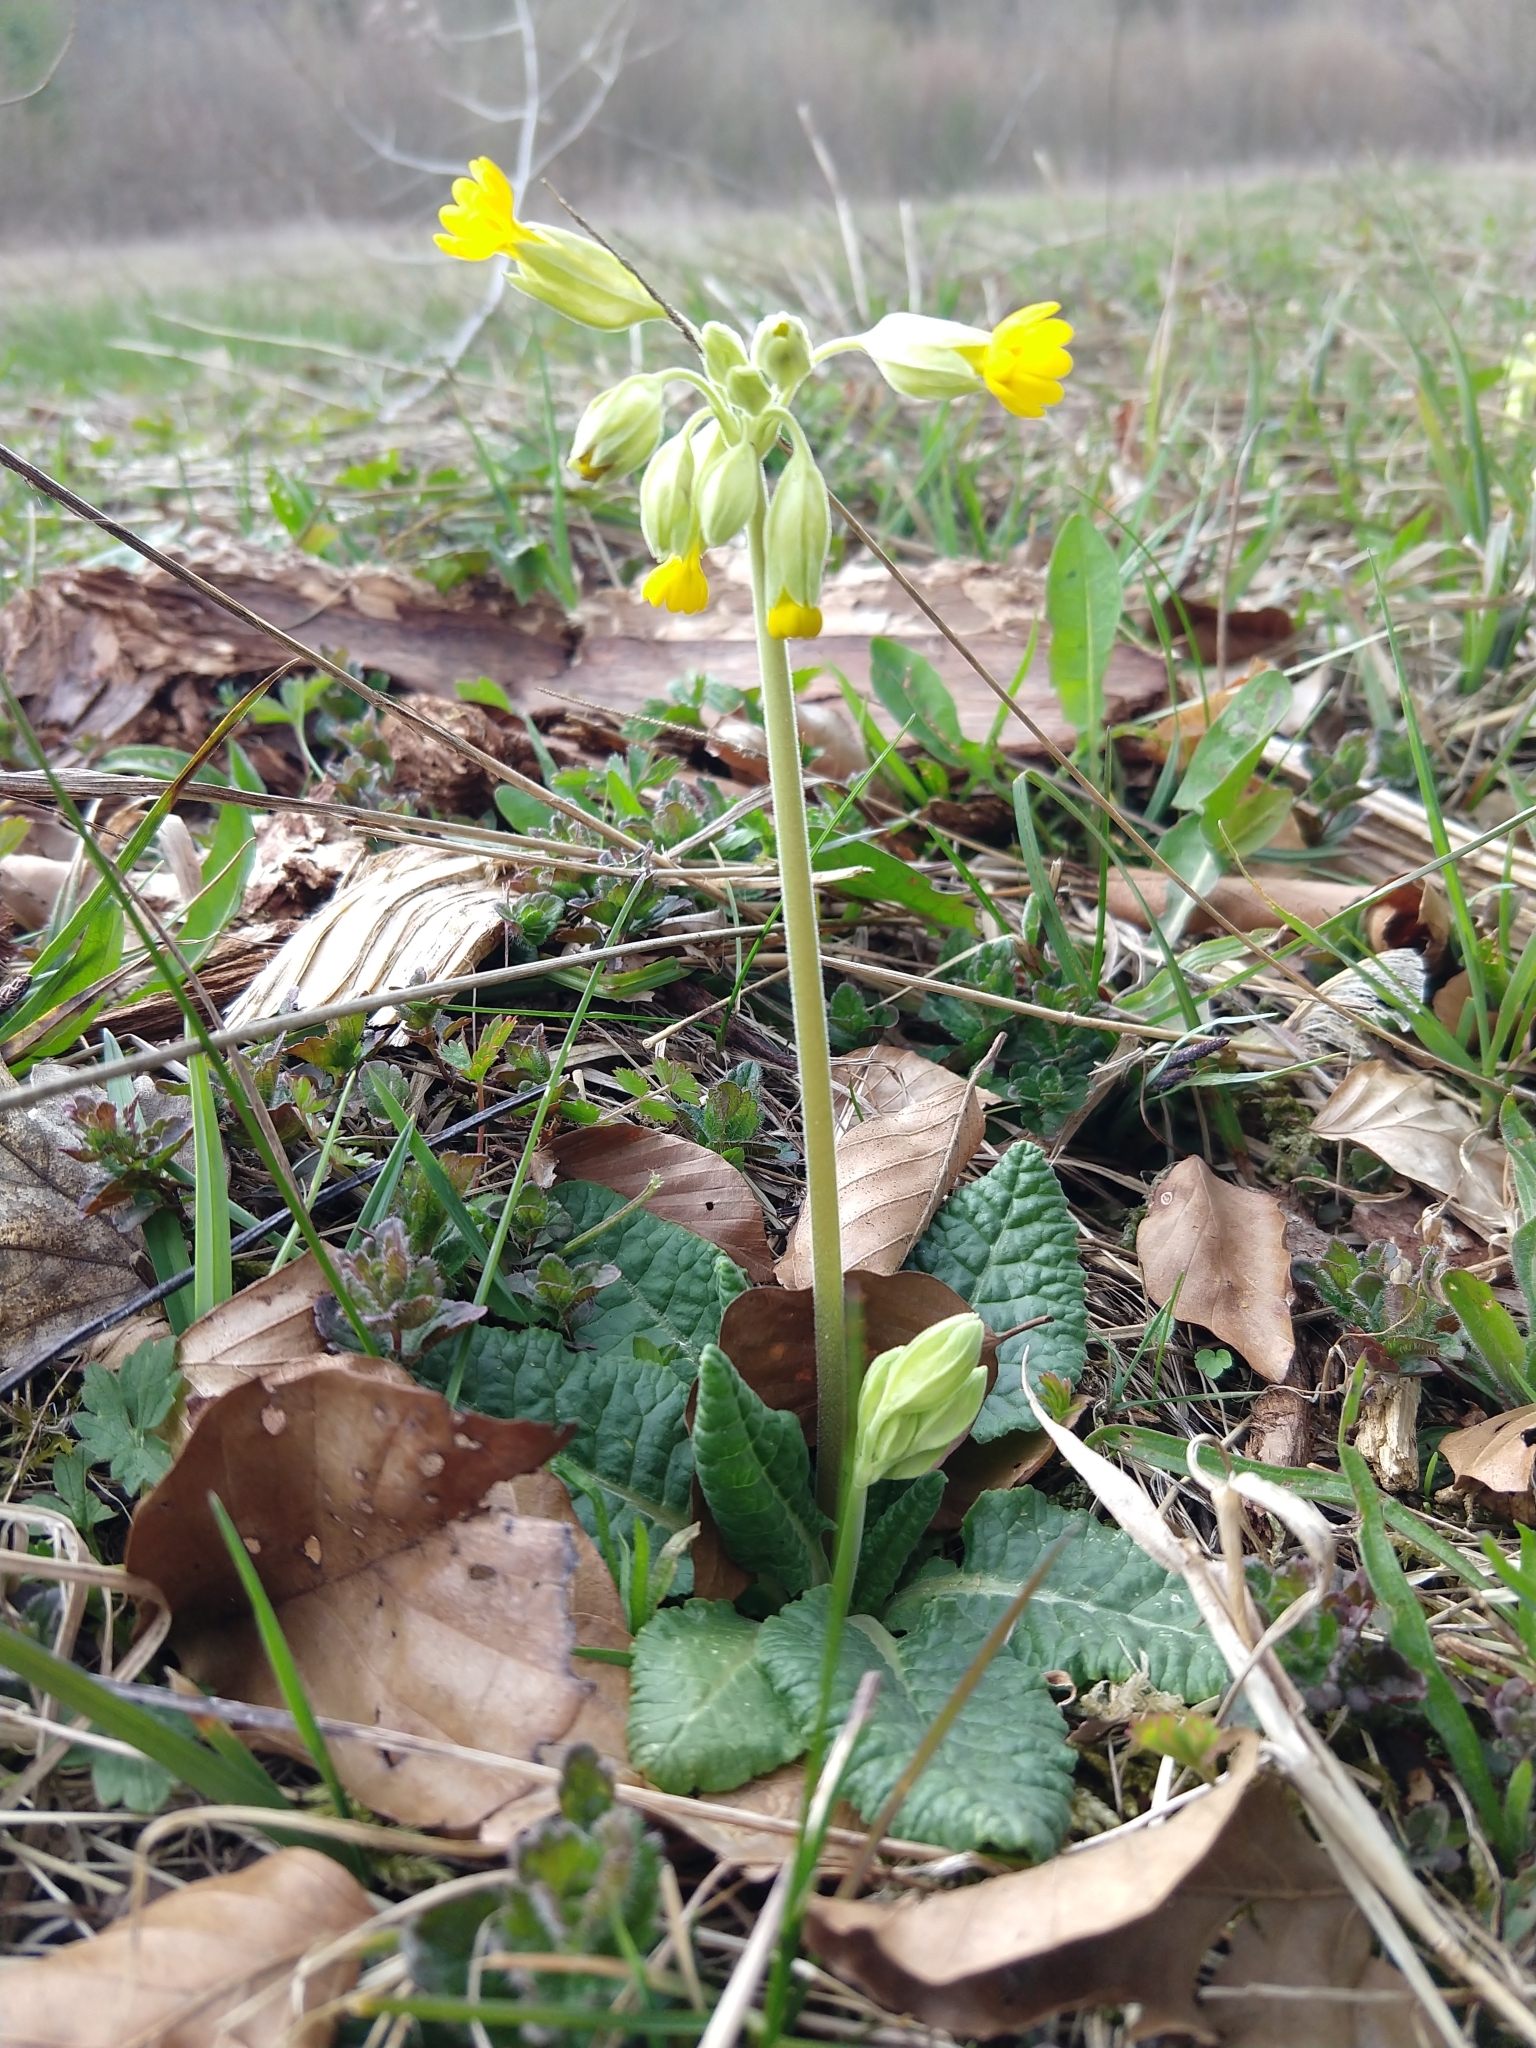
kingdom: Plantae
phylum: Tracheophyta
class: Magnoliopsida
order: Ericales
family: Primulaceae
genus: Primula
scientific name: Primula veris
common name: Cowslip
